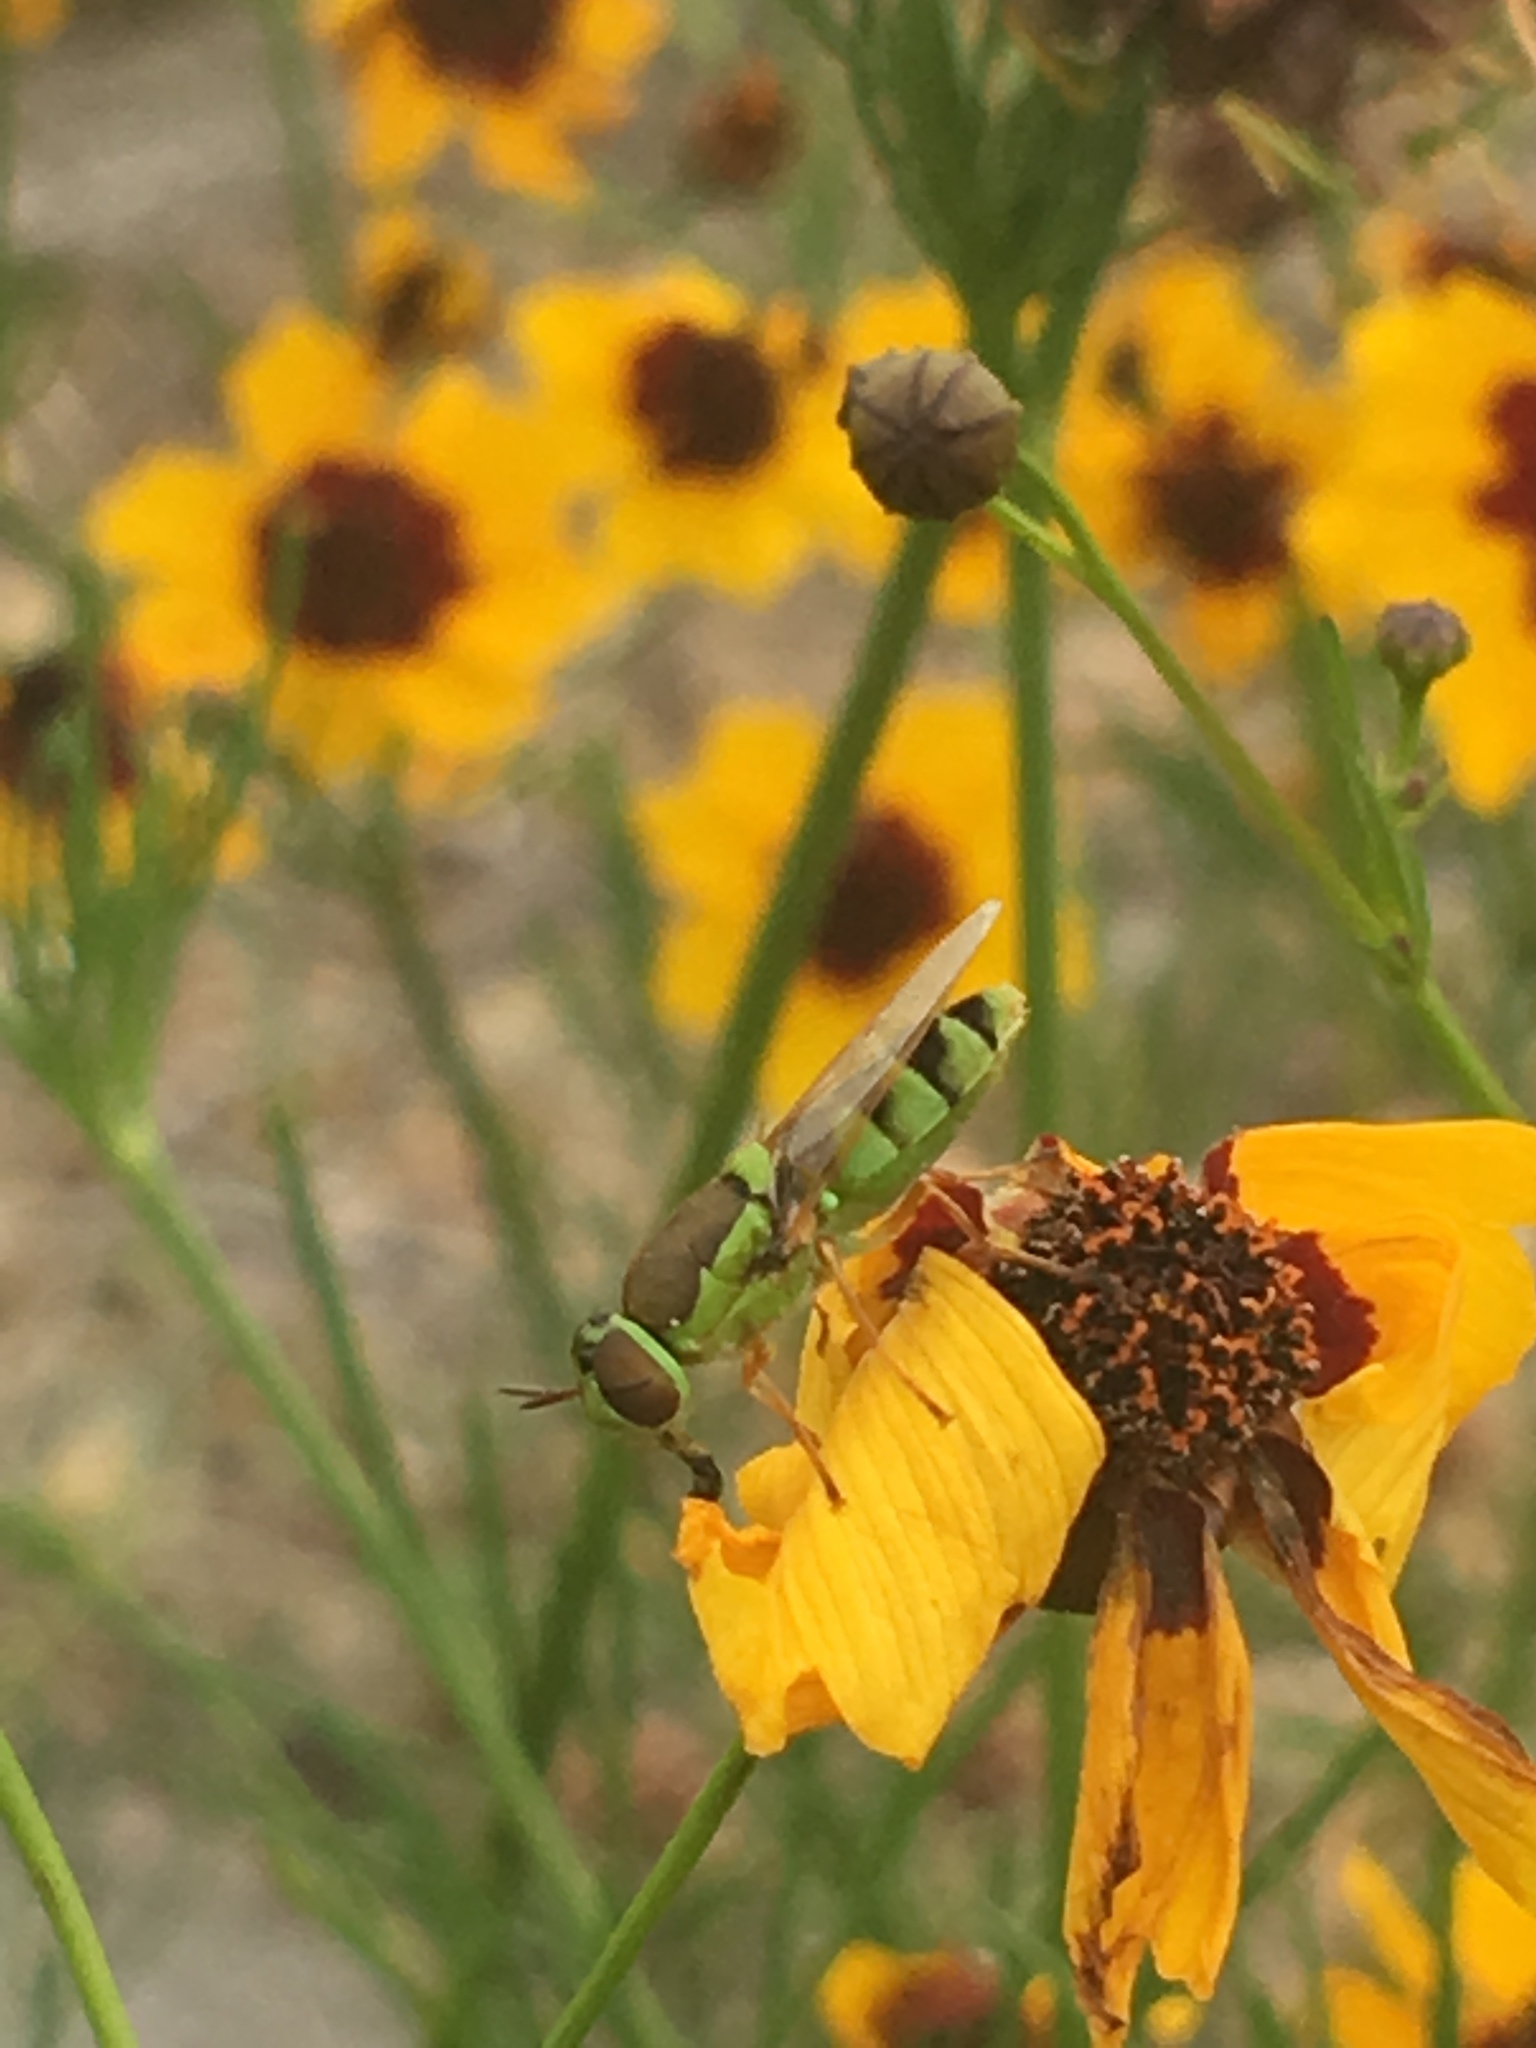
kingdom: Animalia
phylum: Arthropoda
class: Insecta
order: Diptera
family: Stratiomyidae
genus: Odontomyia
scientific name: Odontomyia cincta
